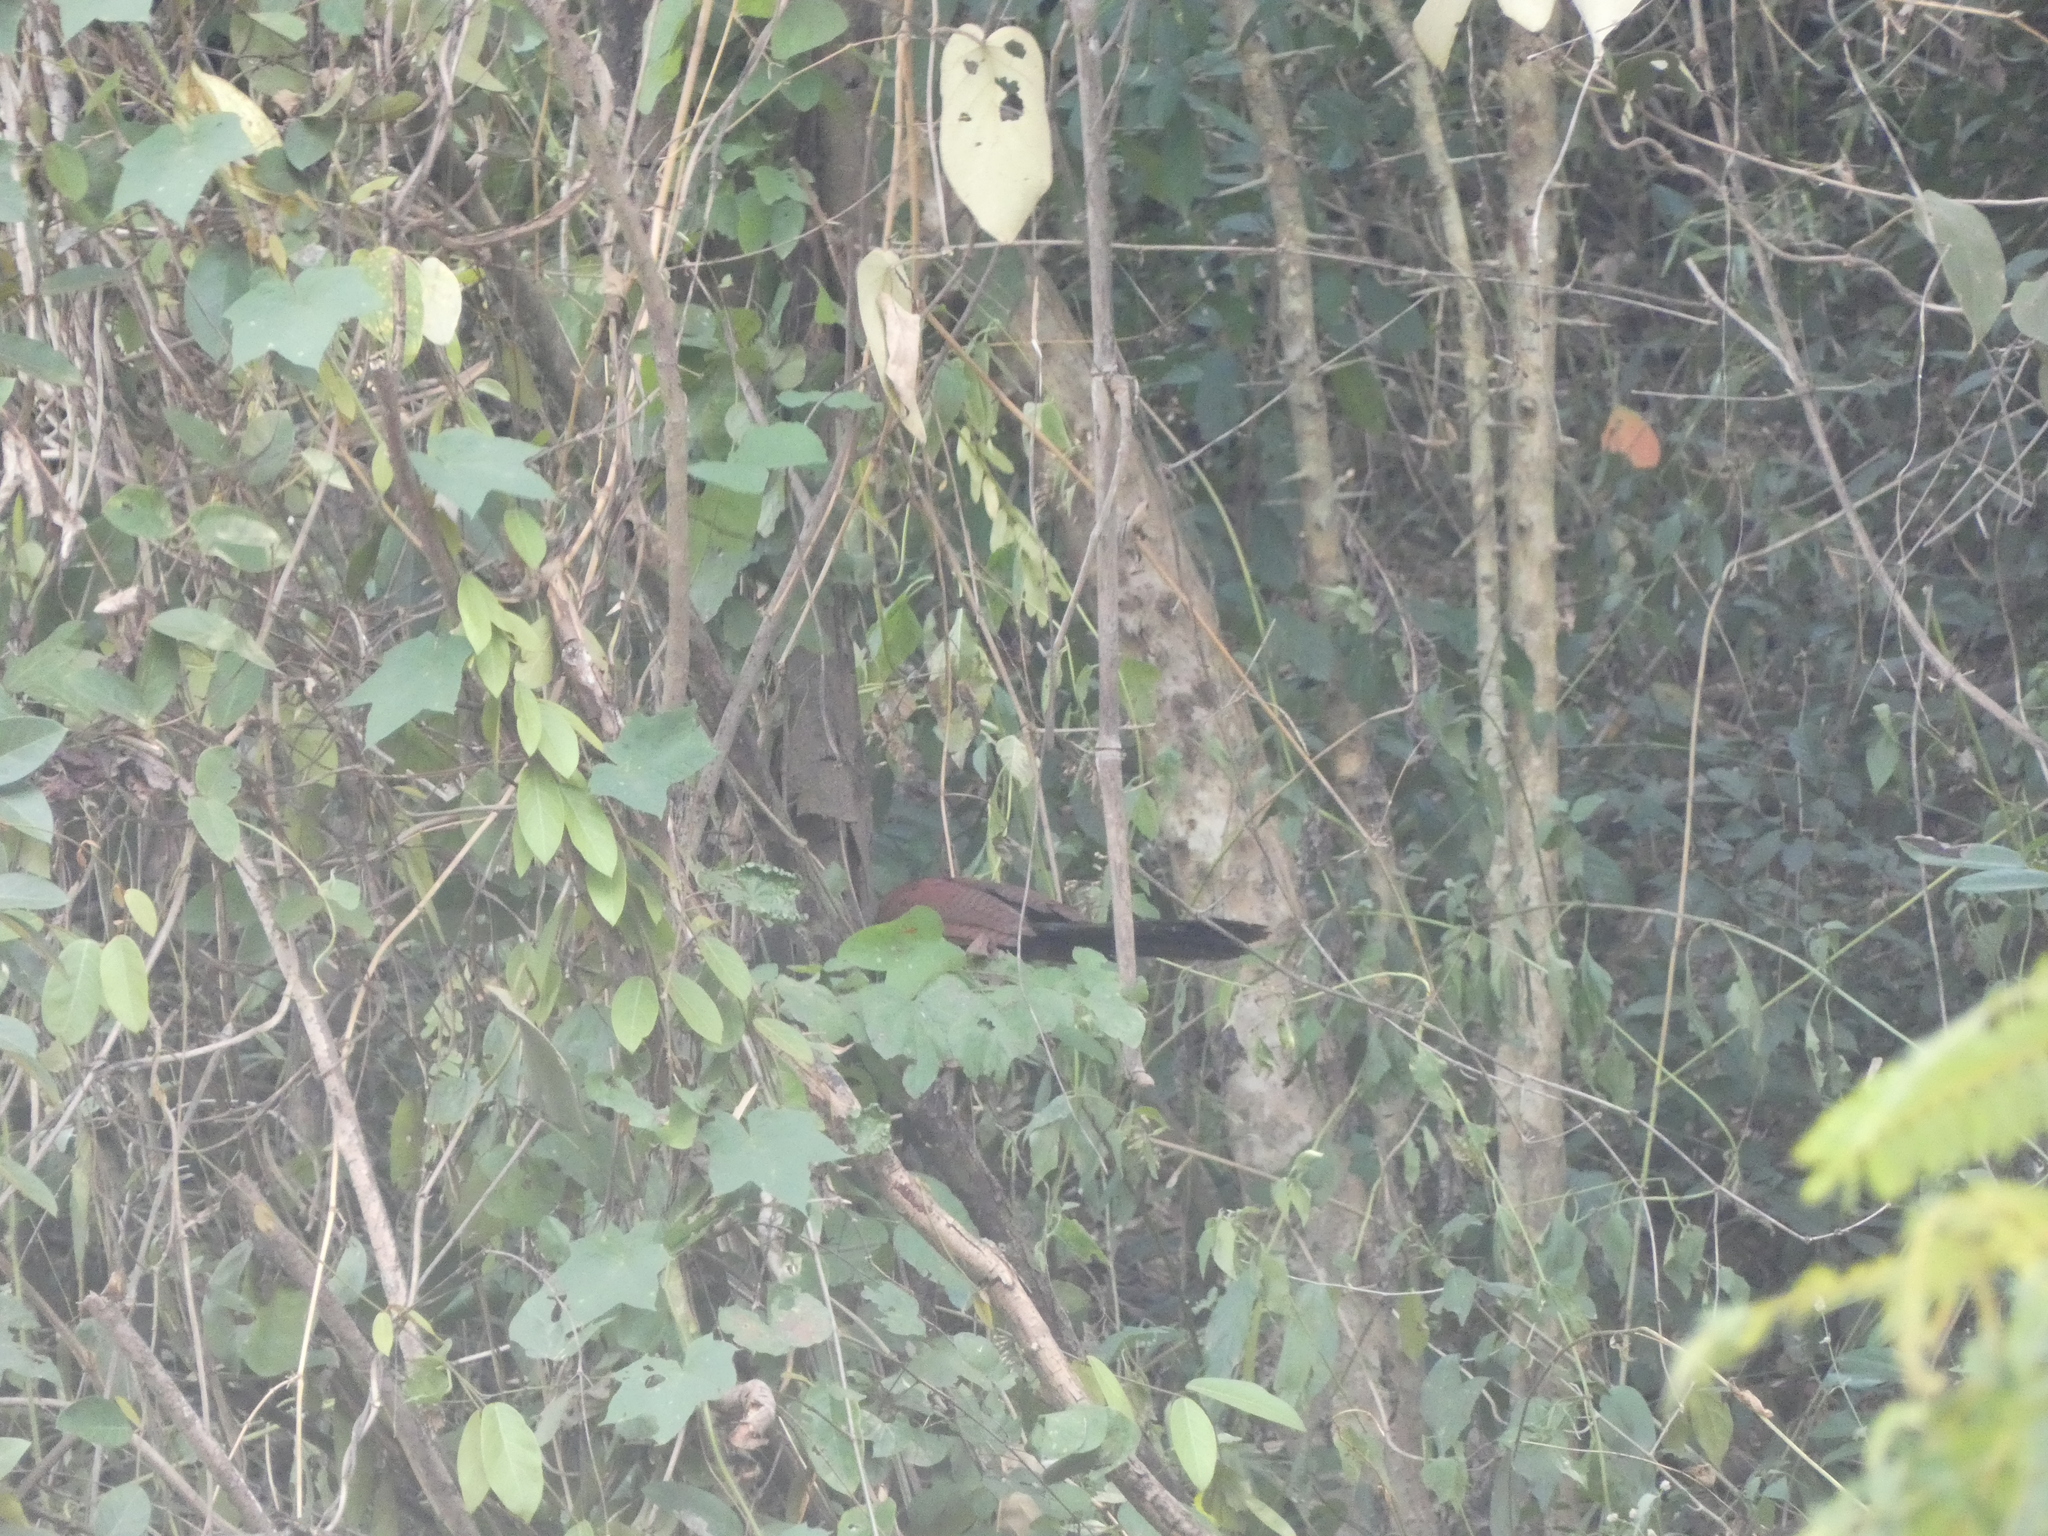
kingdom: Animalia
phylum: Chordata
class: Aves
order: Cuculiformes
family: Cuculidae
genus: Centropus
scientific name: Centropus sinensis
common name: Greater coucal
